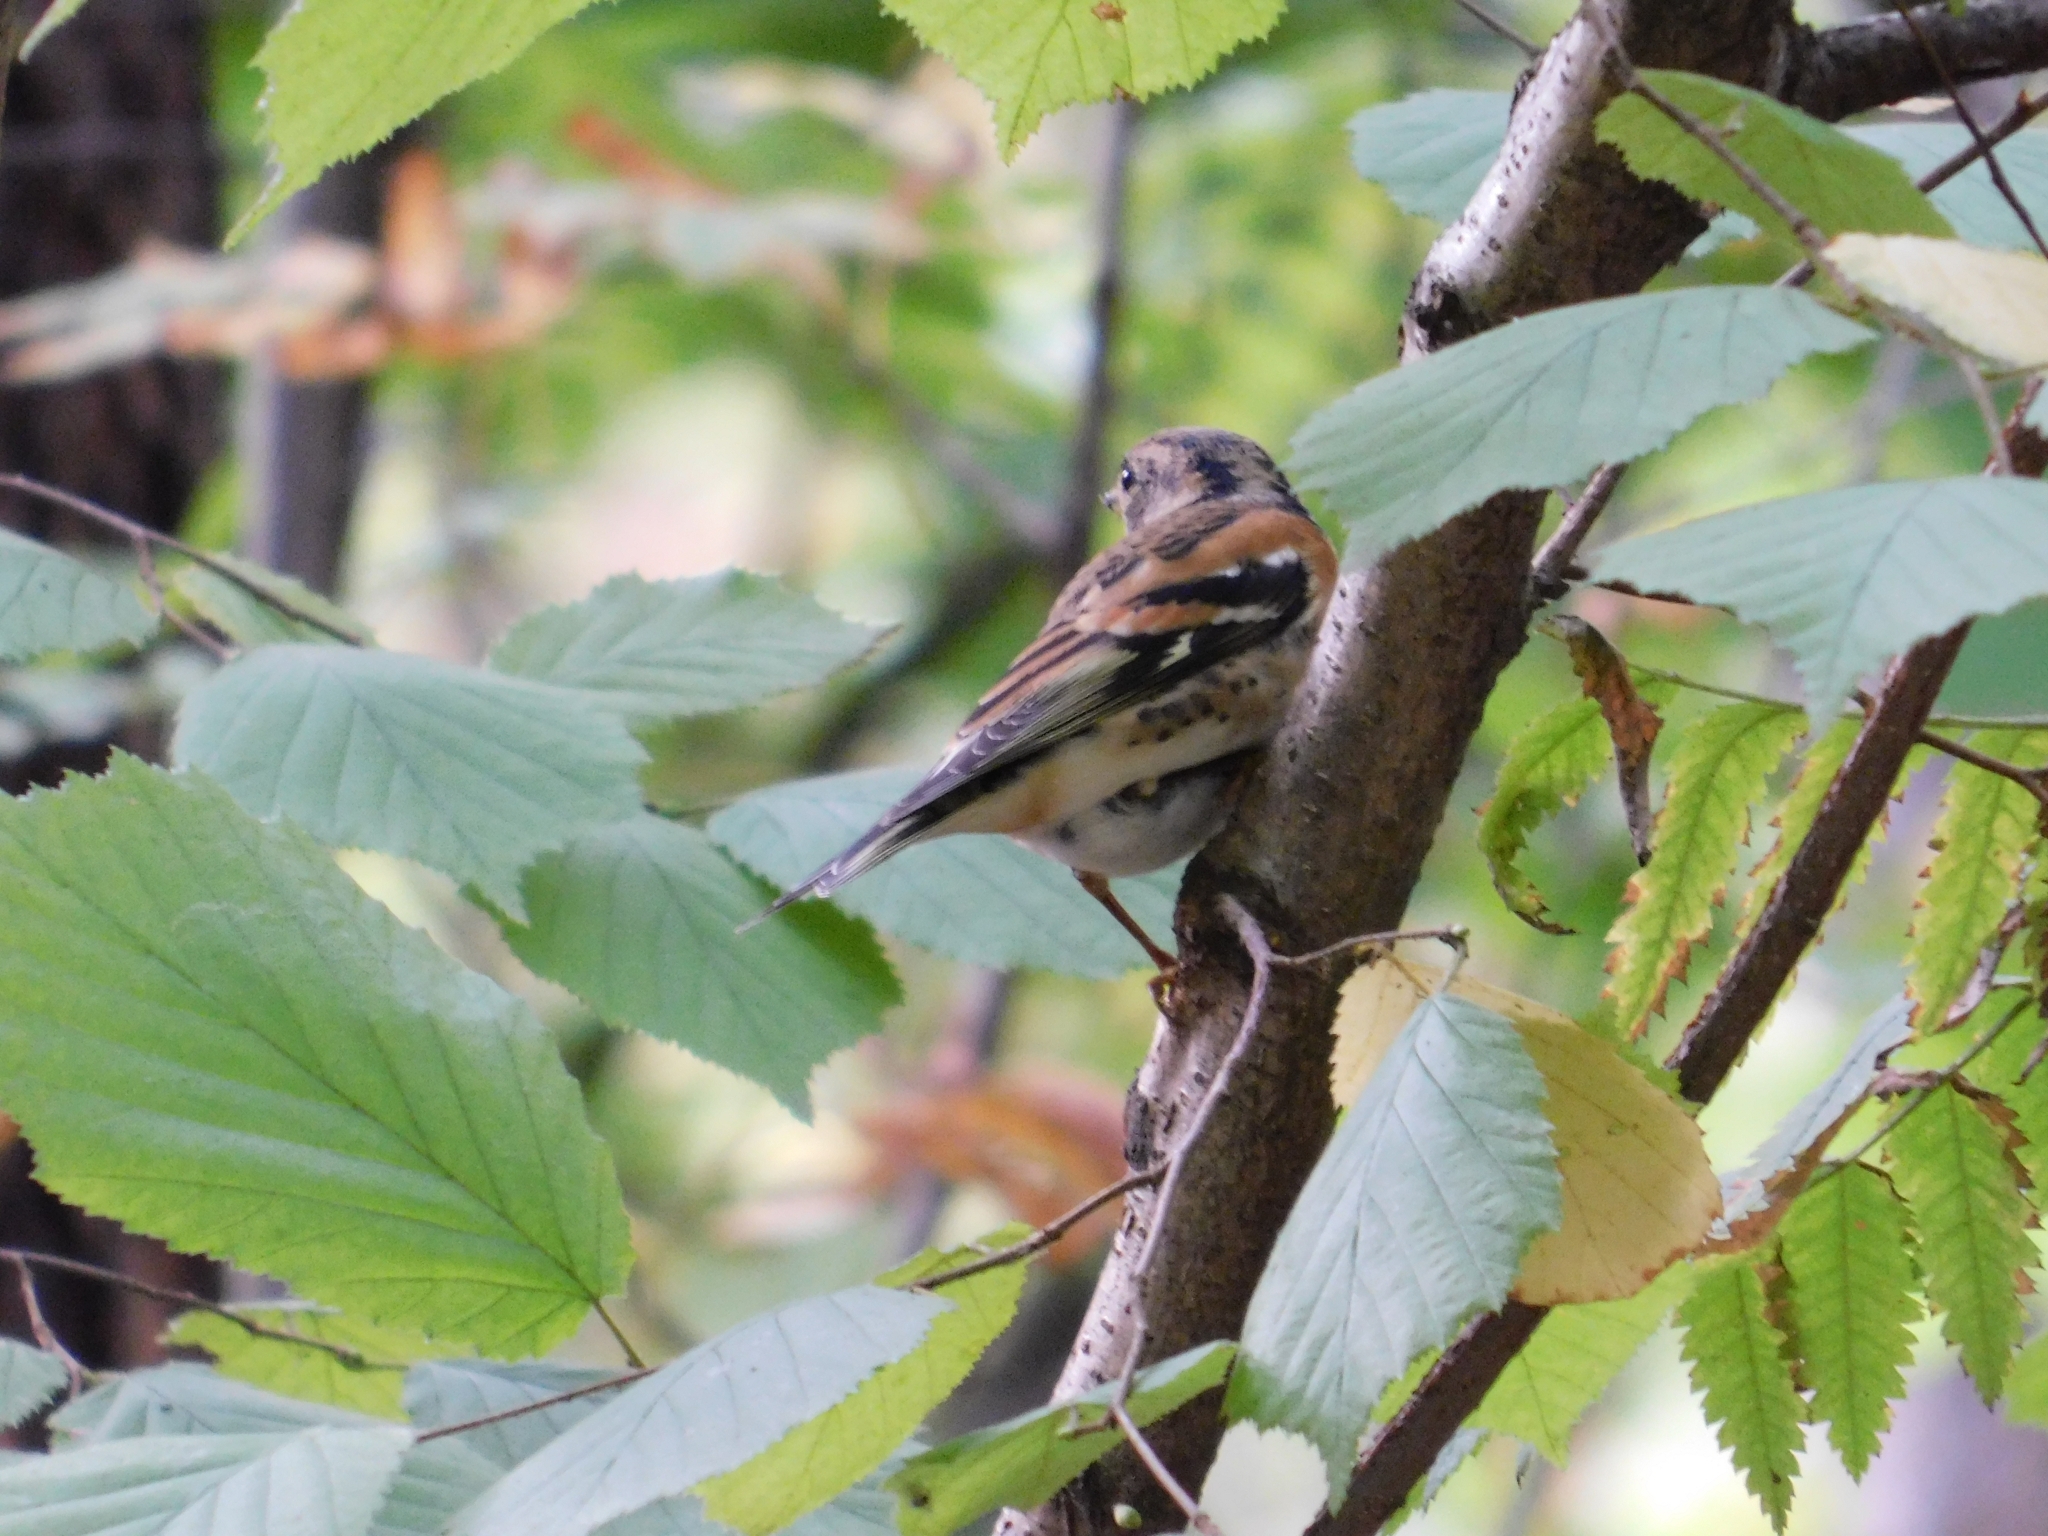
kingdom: Animalia
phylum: Chordata
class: Aves
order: Passeriformes
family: Fringillidae
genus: Fringilla
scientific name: Fringilla montifringilla
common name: Brambling
